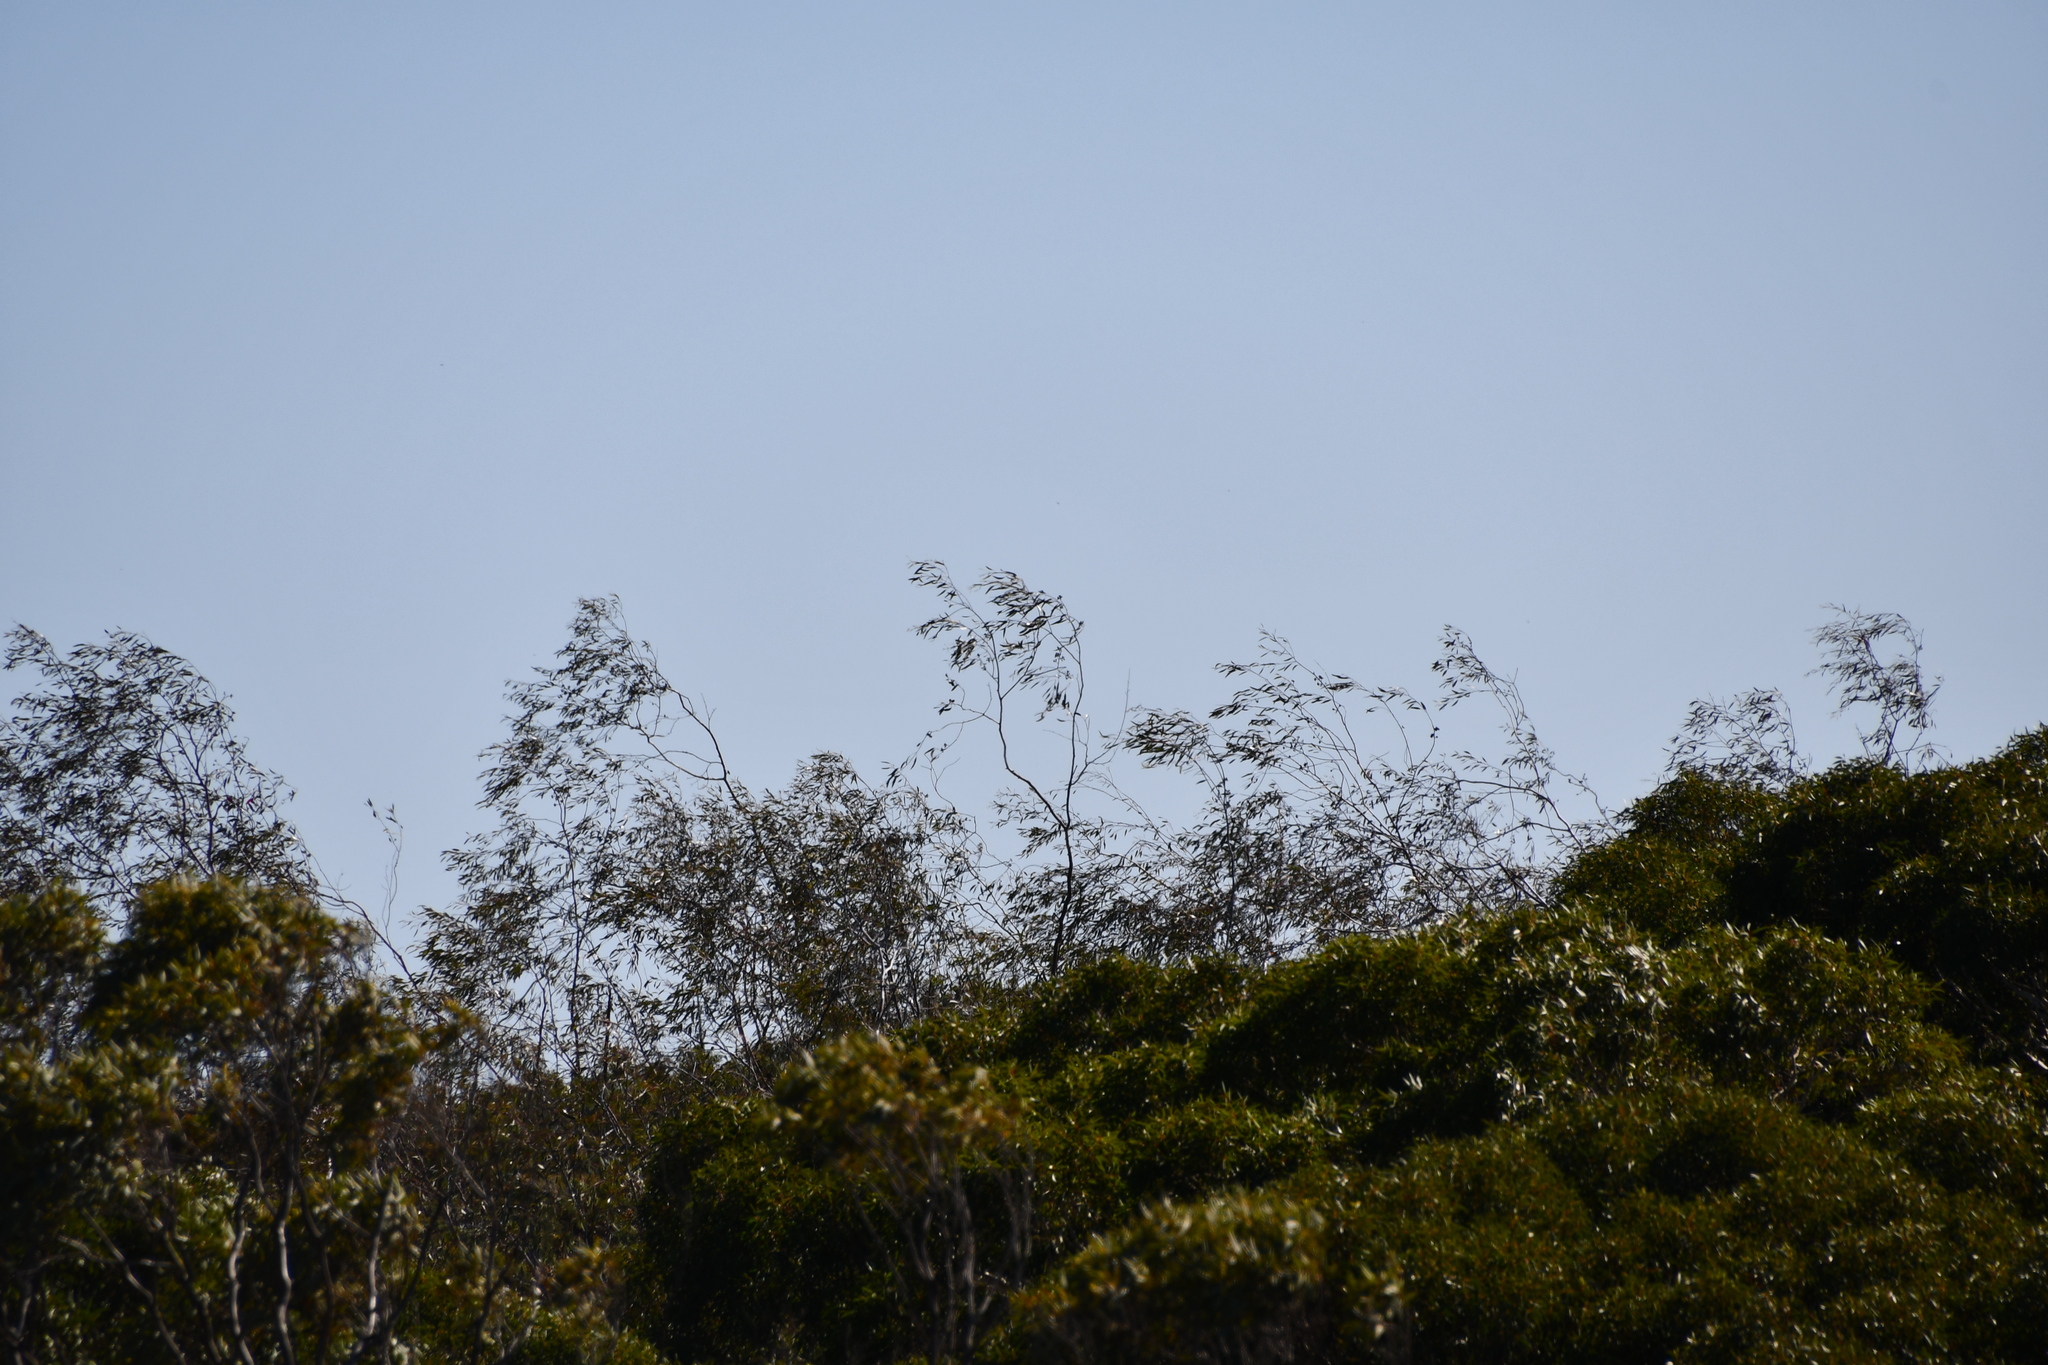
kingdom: Plantae
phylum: Tracheophyta
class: Magnoliopsida
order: Myrtales
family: Myrtaceae
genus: Eucalyptus
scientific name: Eucalyptus pendens
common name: Badgingarra mallee
